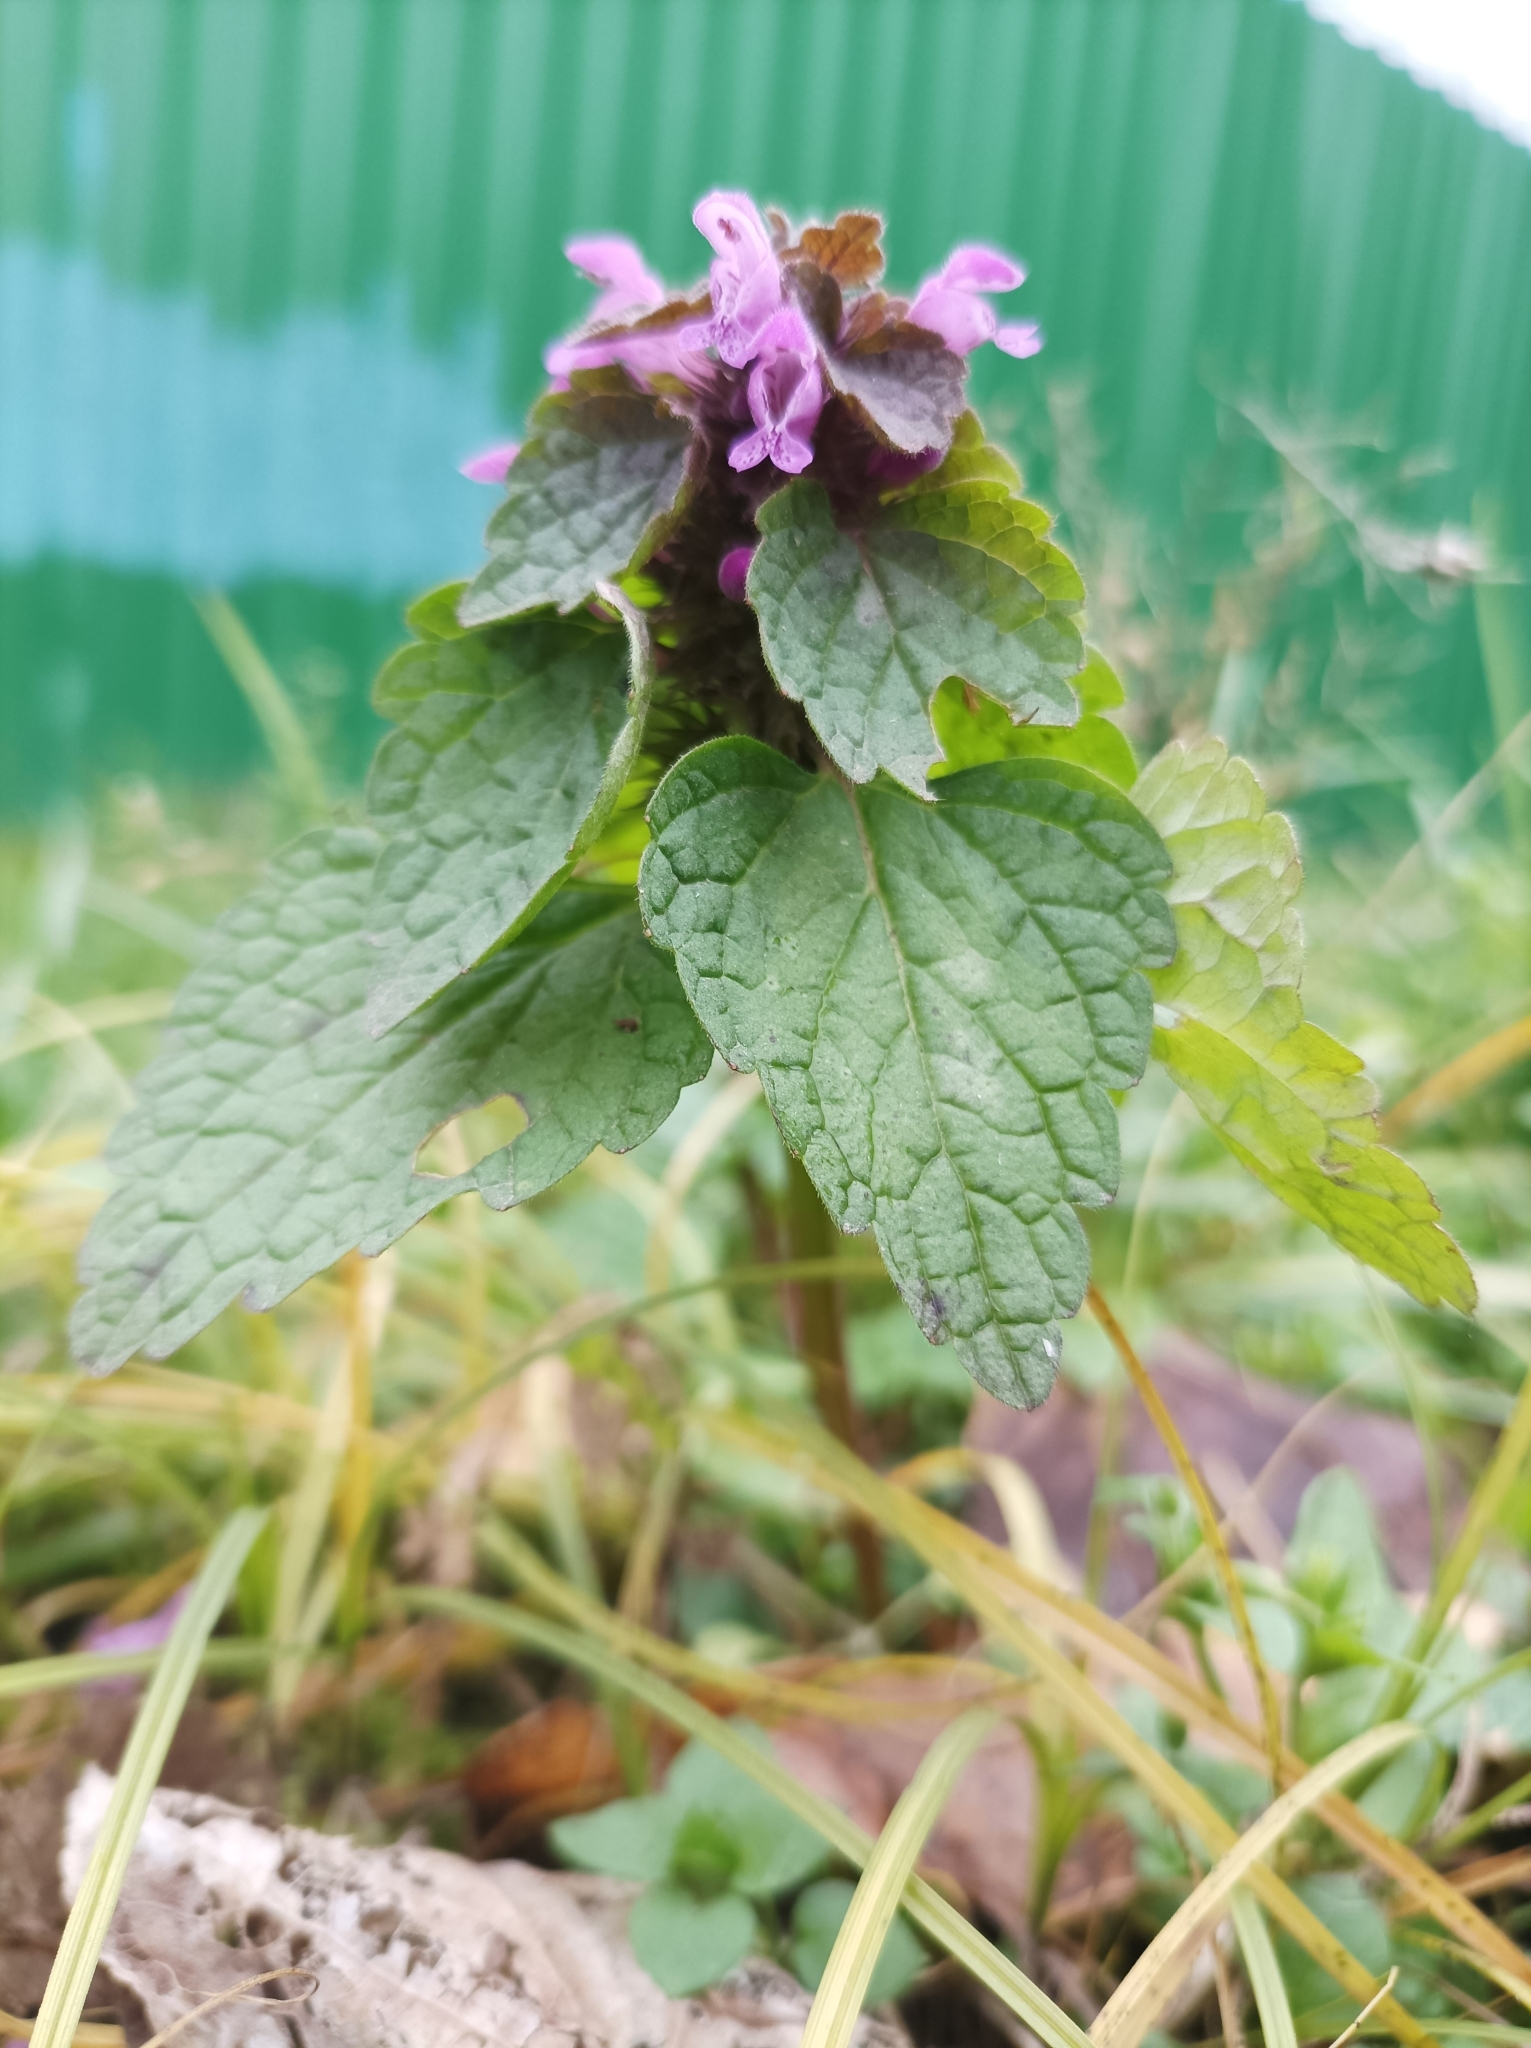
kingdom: Plantae
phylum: Tracheophyta
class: Magnoliopsida
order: Lamiales
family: Lamiaceae
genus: Lamium
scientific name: Lamium purpureum
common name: Red dead-nettle
